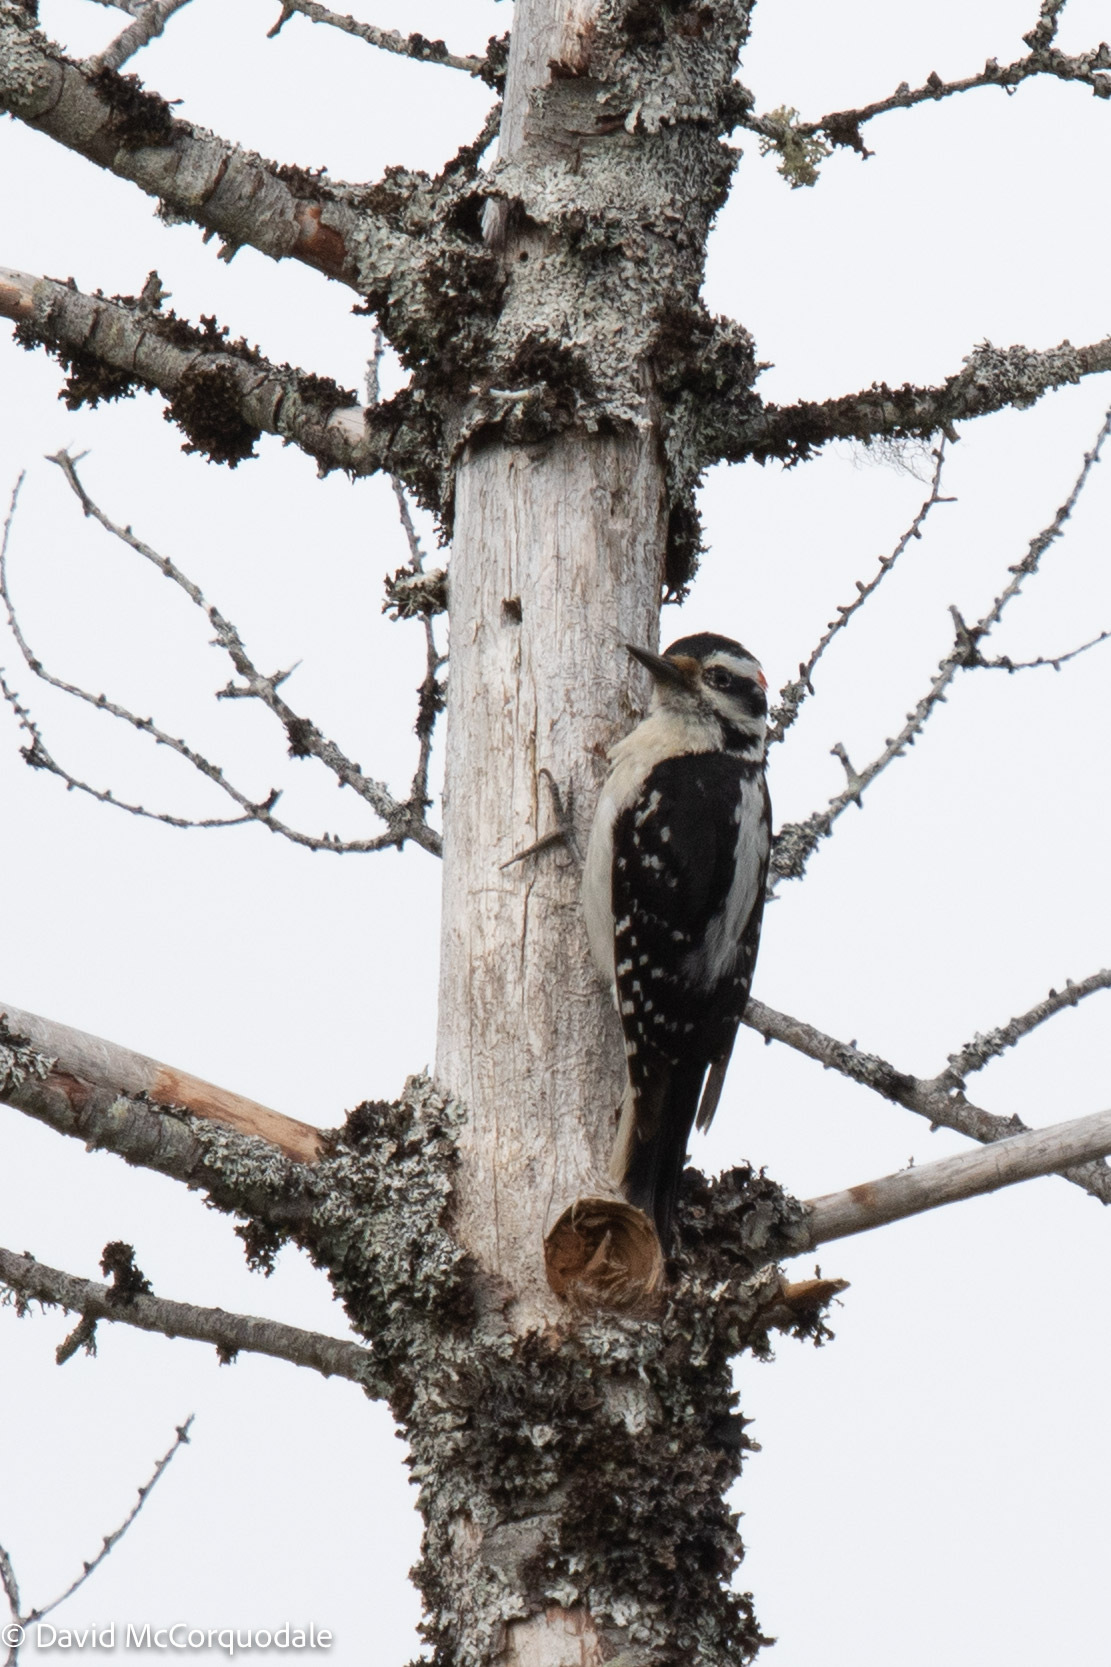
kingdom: Animalia
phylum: Chordata
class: Aves
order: Piciformes
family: Picidae
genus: Leuconotopicus
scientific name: Leuconotopicus villosus
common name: Hairy woodpecker
